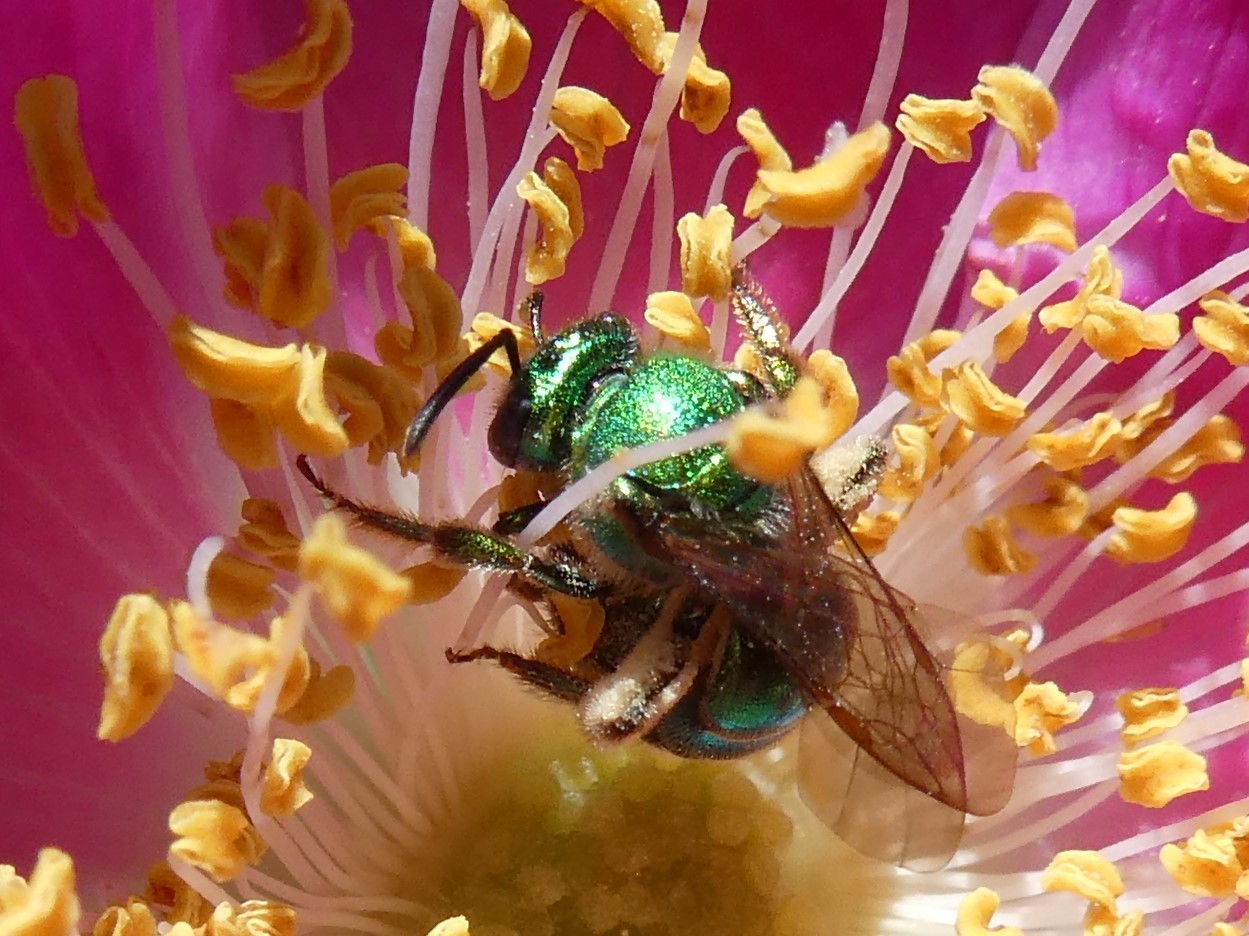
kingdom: Animalia
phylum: Arthropoda
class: Insecta
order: Hymenoptera
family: Halictidae
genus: Augochloropsis
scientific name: Augochloropsis viridula
